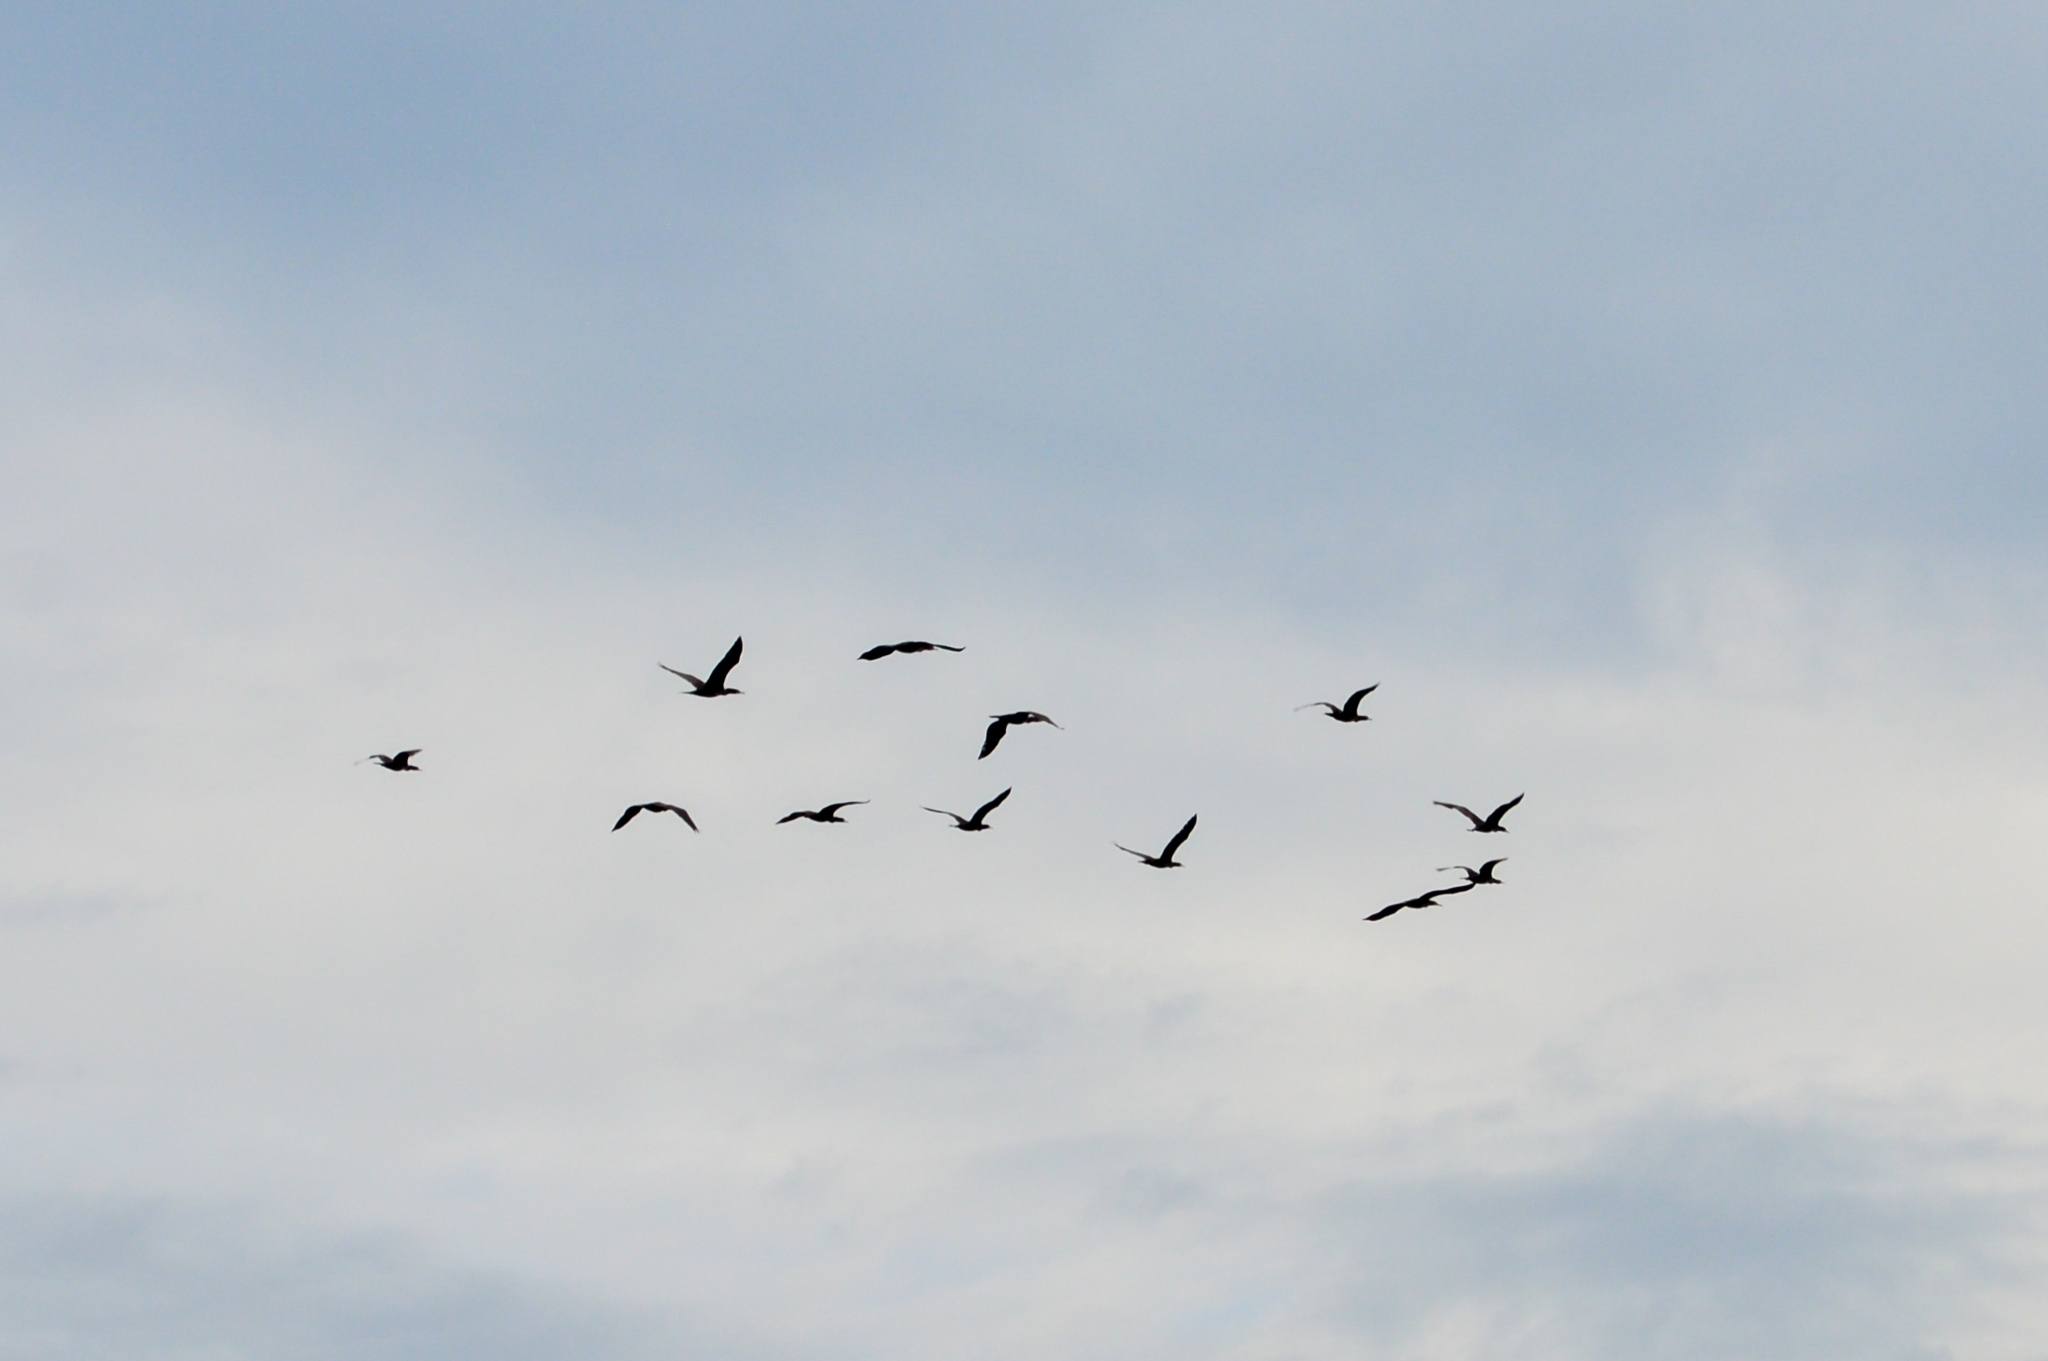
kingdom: Animalia
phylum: Chordata
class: Aves
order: Suliformes
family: Phalacrocoracidae
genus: Phalacrocorax
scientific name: Phalacrocorax carbo
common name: Great cormorant
